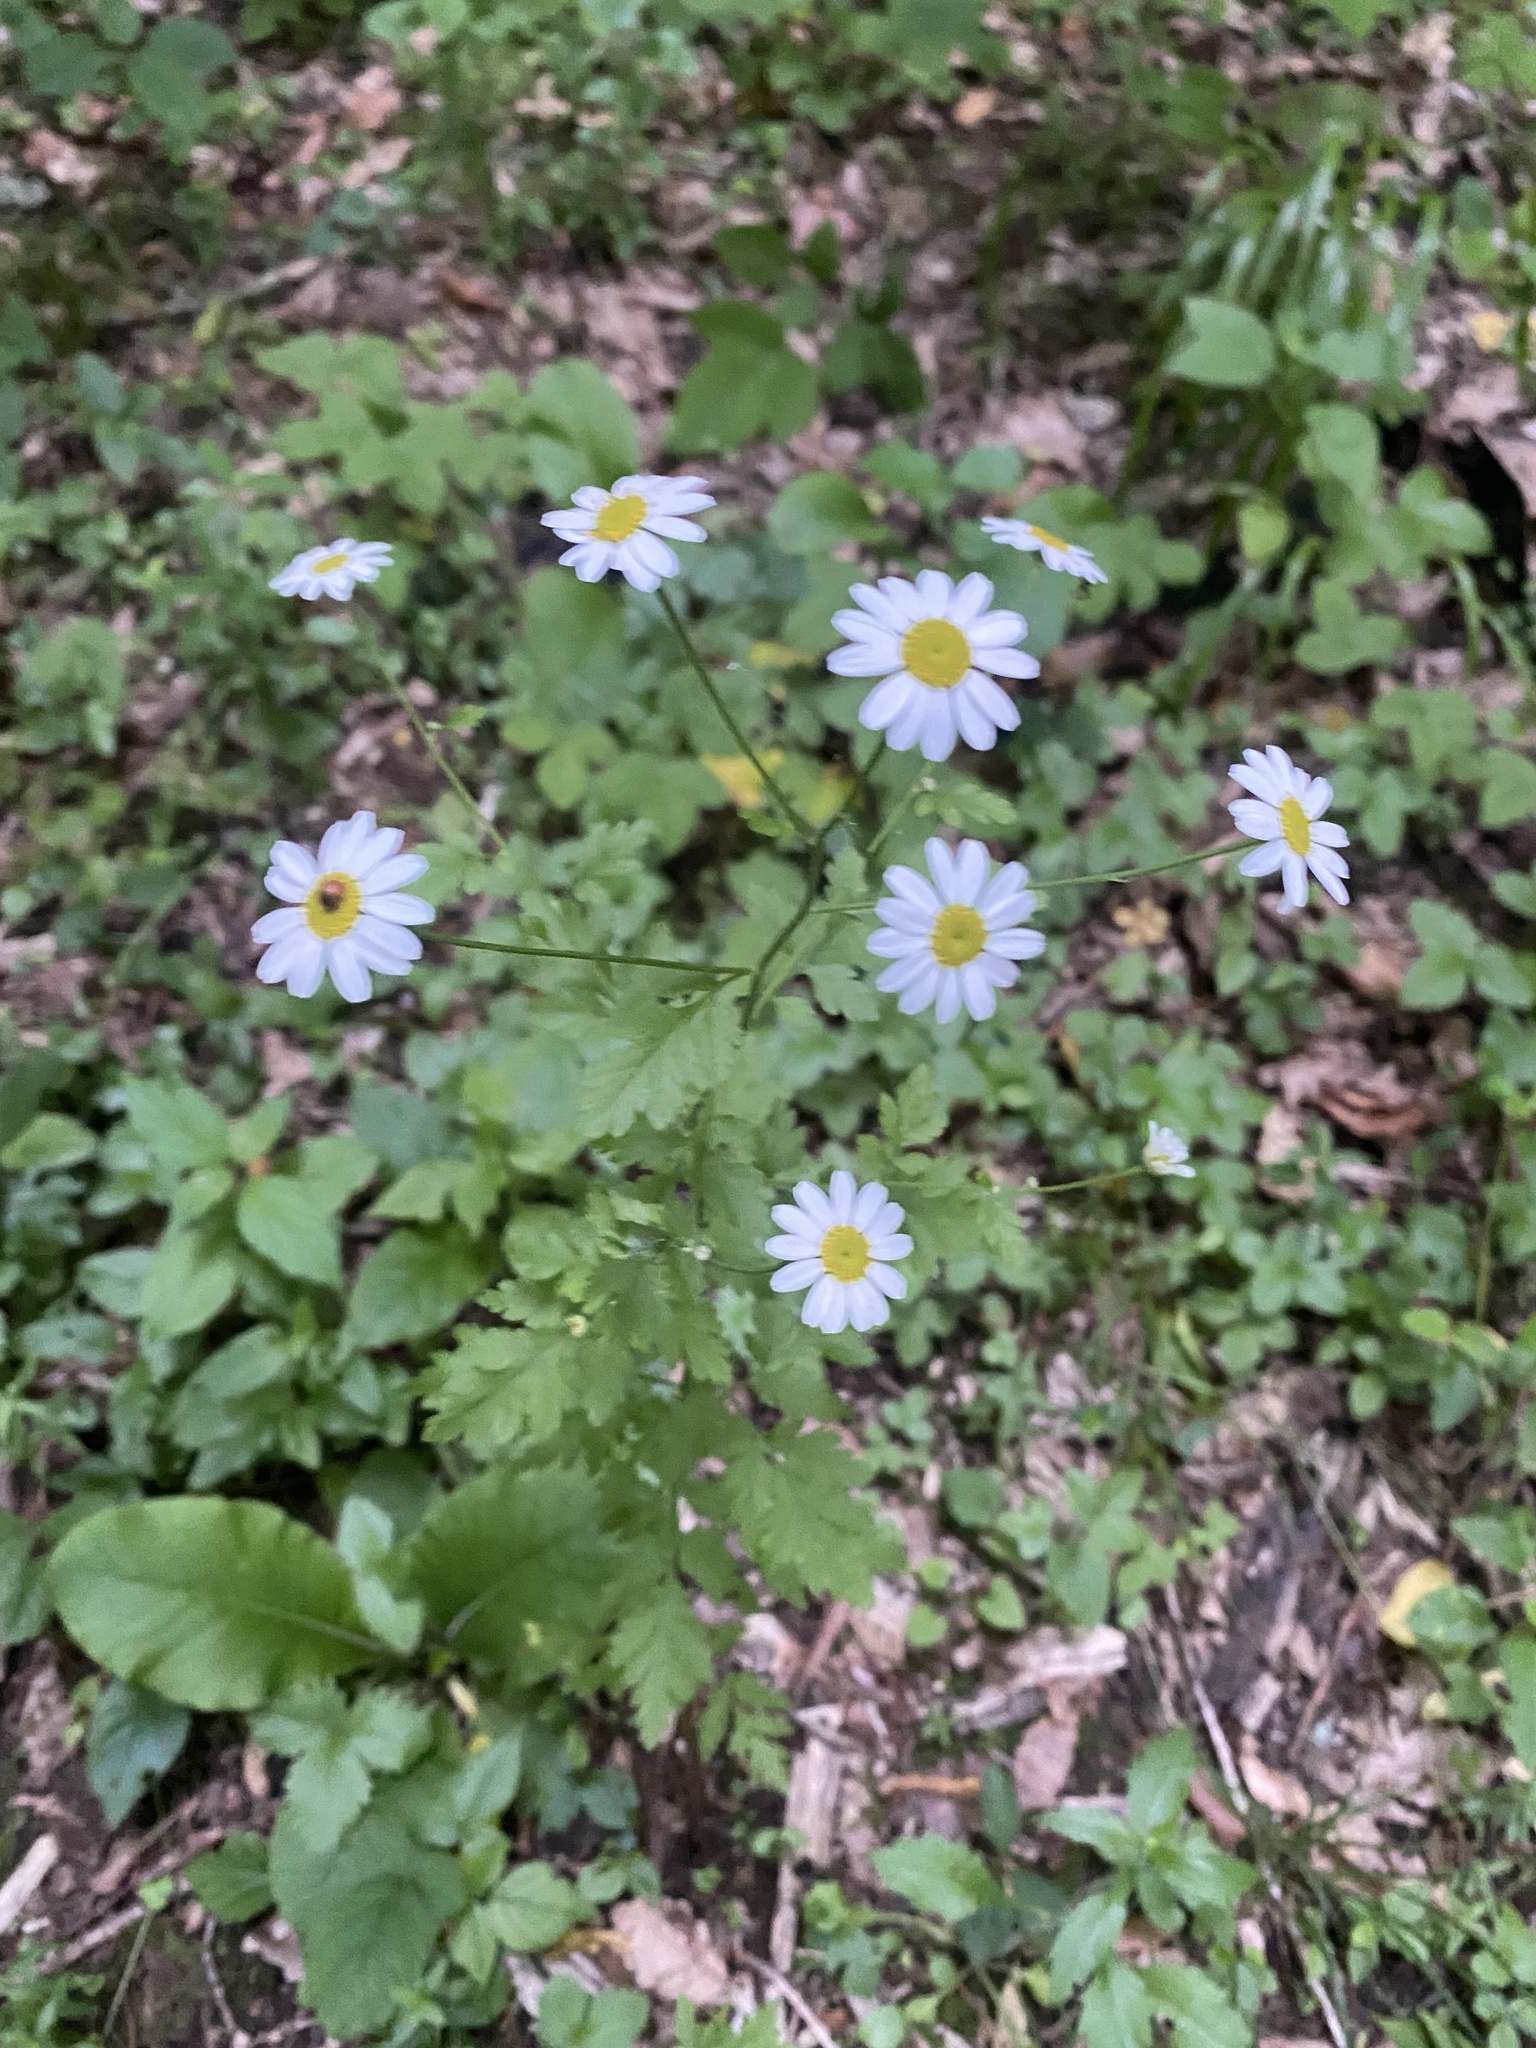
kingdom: Plantae
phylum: Tracheophyta
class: Magnoliopsida
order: Asterales
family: Asteraceae
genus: Tanacetum
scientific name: Tanacetum partheniifolium
